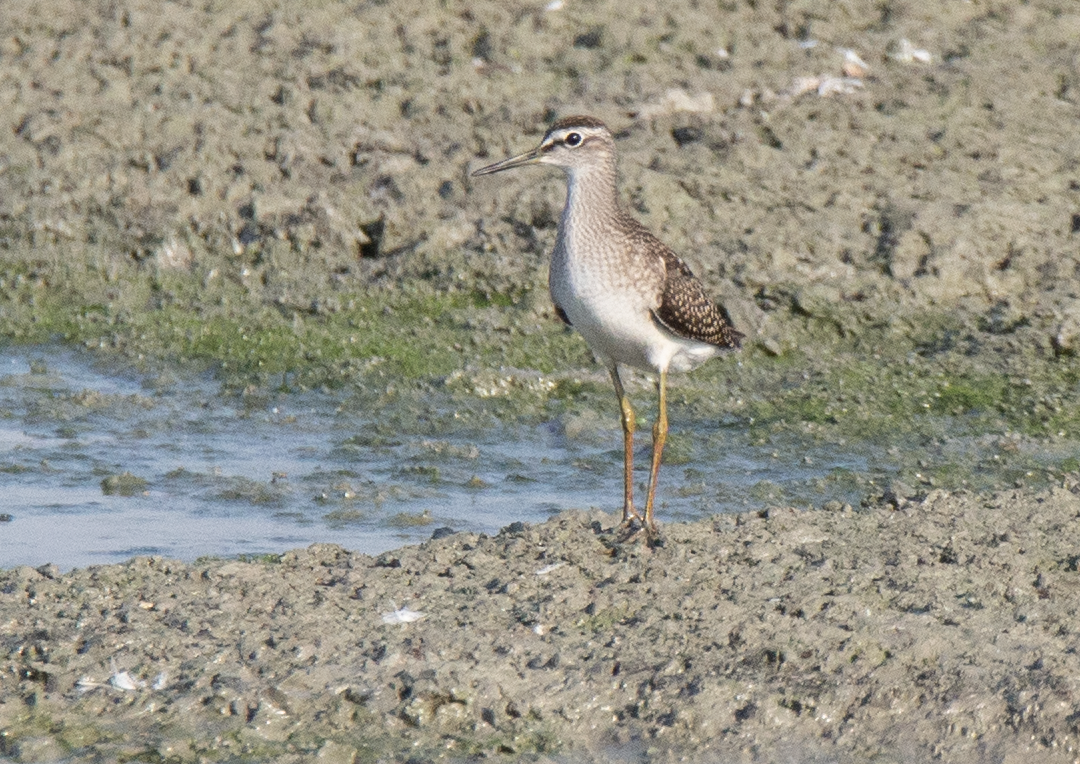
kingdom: Animalia
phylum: Chordata
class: Aves
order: Charadriiformes
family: Scolopacidae
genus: Tringa
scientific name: Tringa glareola
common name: Wood sandpiper
